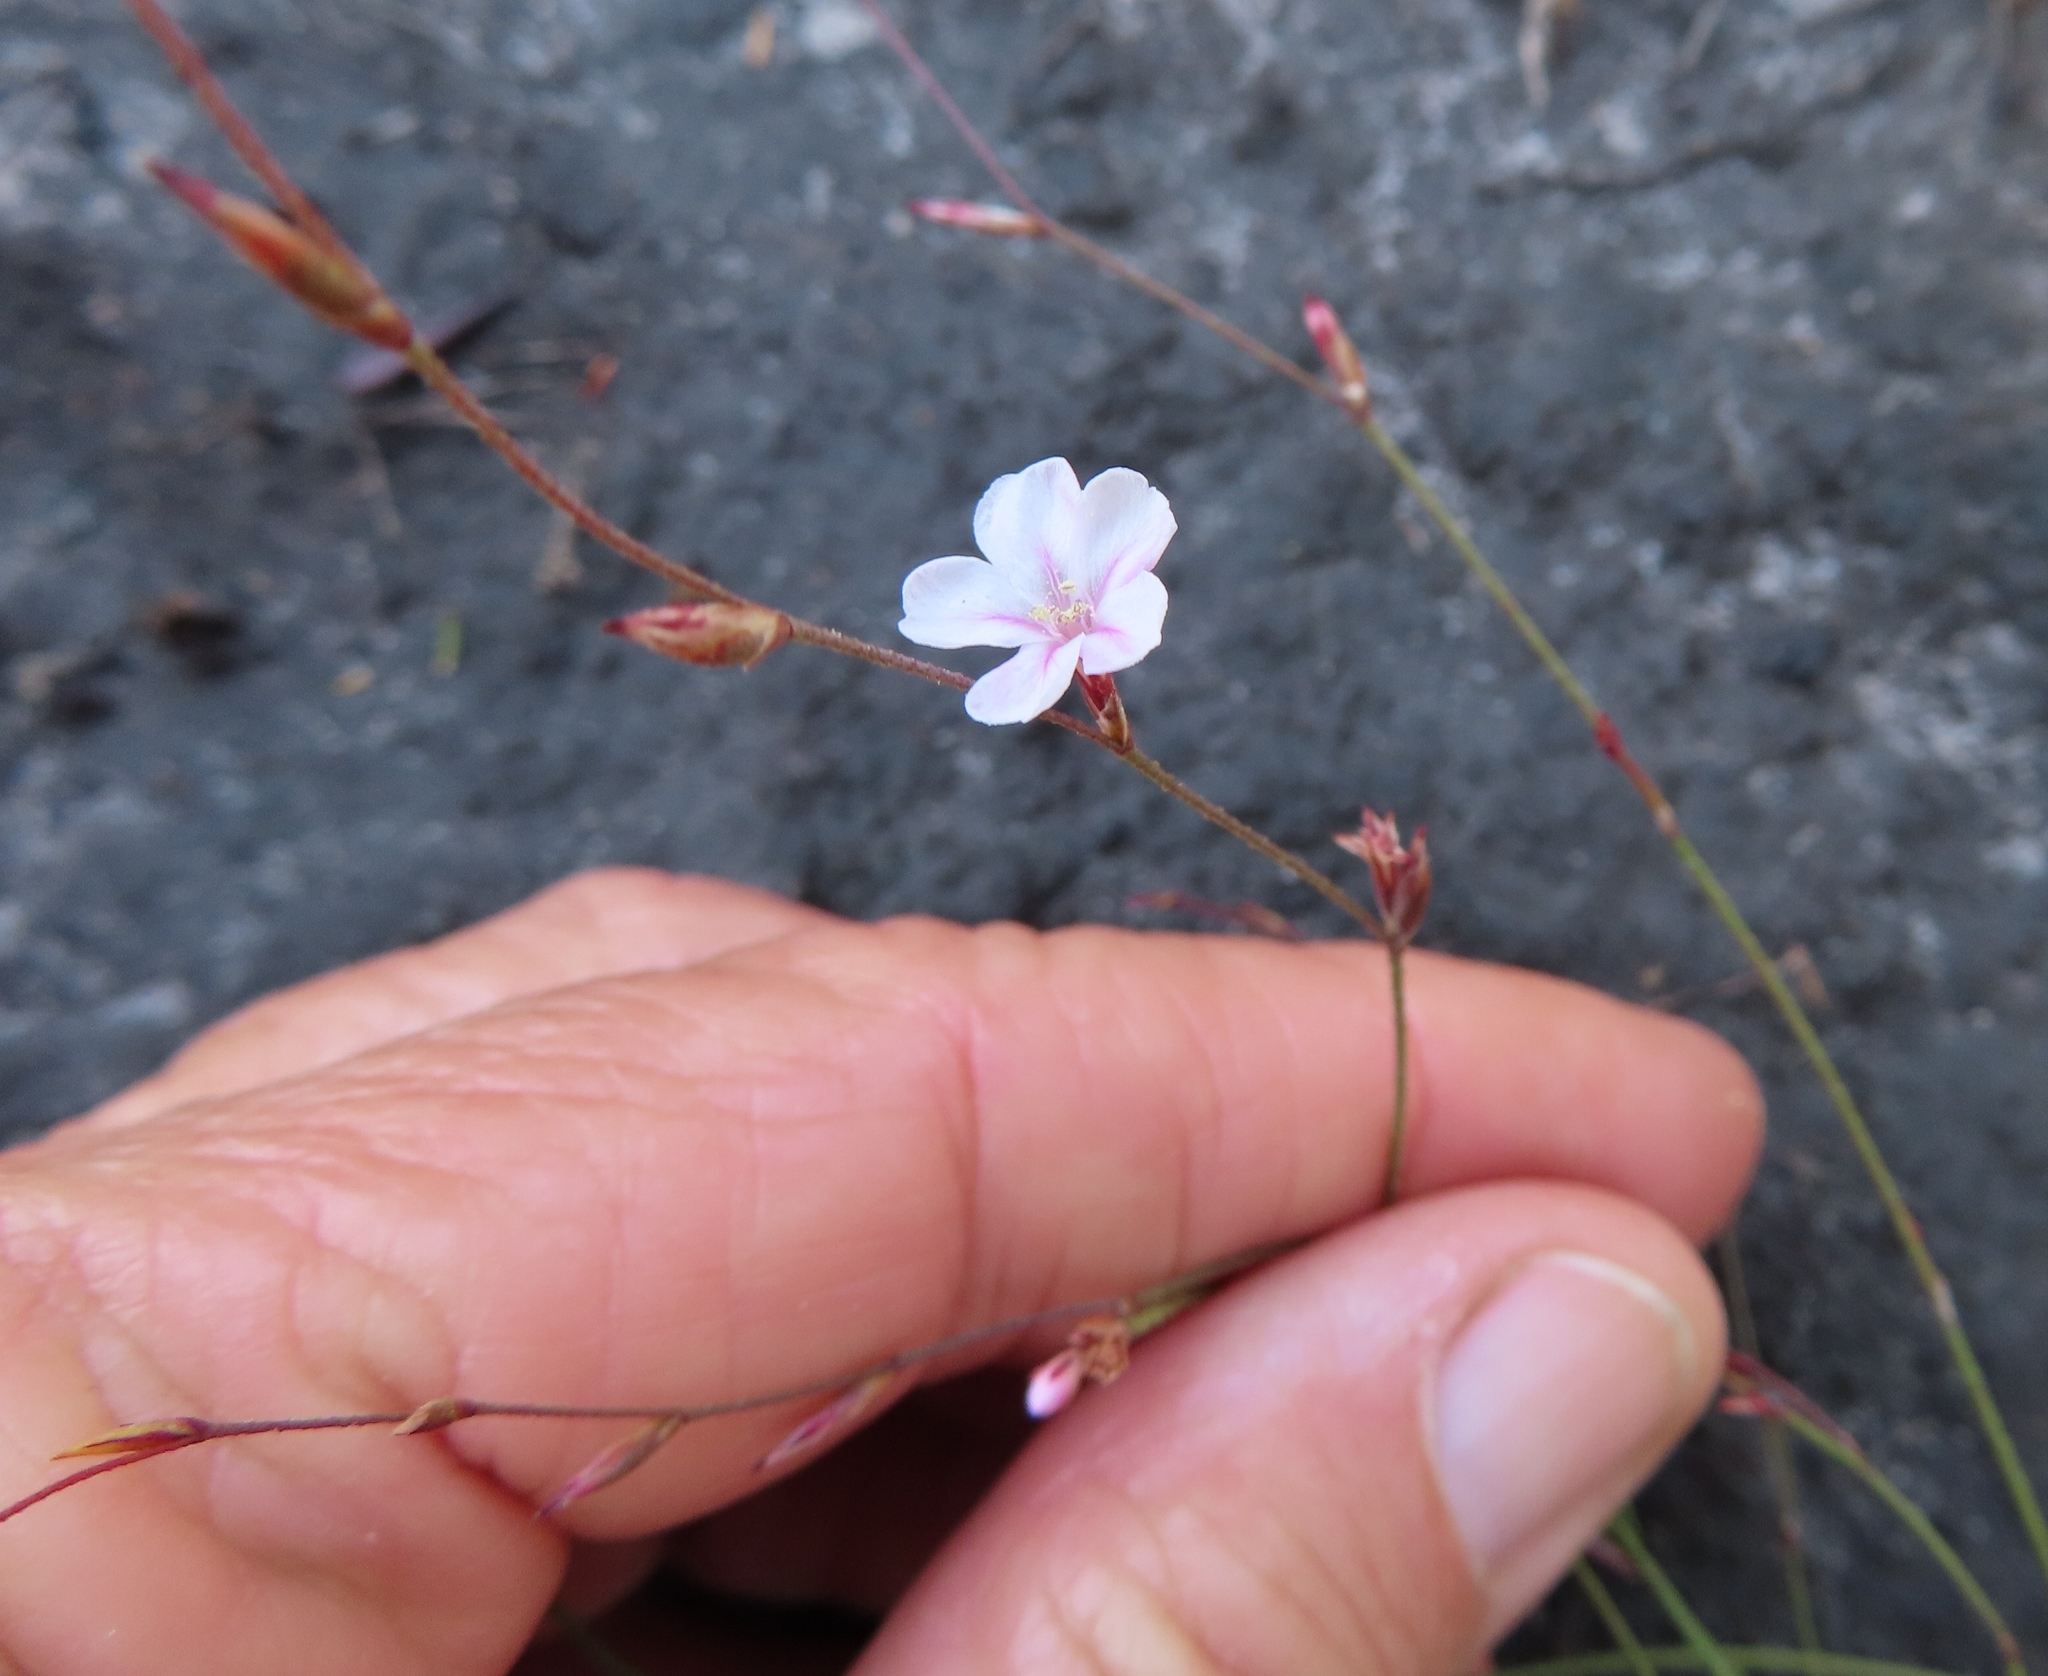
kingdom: Plantae
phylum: Tracheophyta
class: Magnoliopsida
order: Caryophyllales
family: Plumbaginaceae
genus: Limonium
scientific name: Limonium anthericoides
